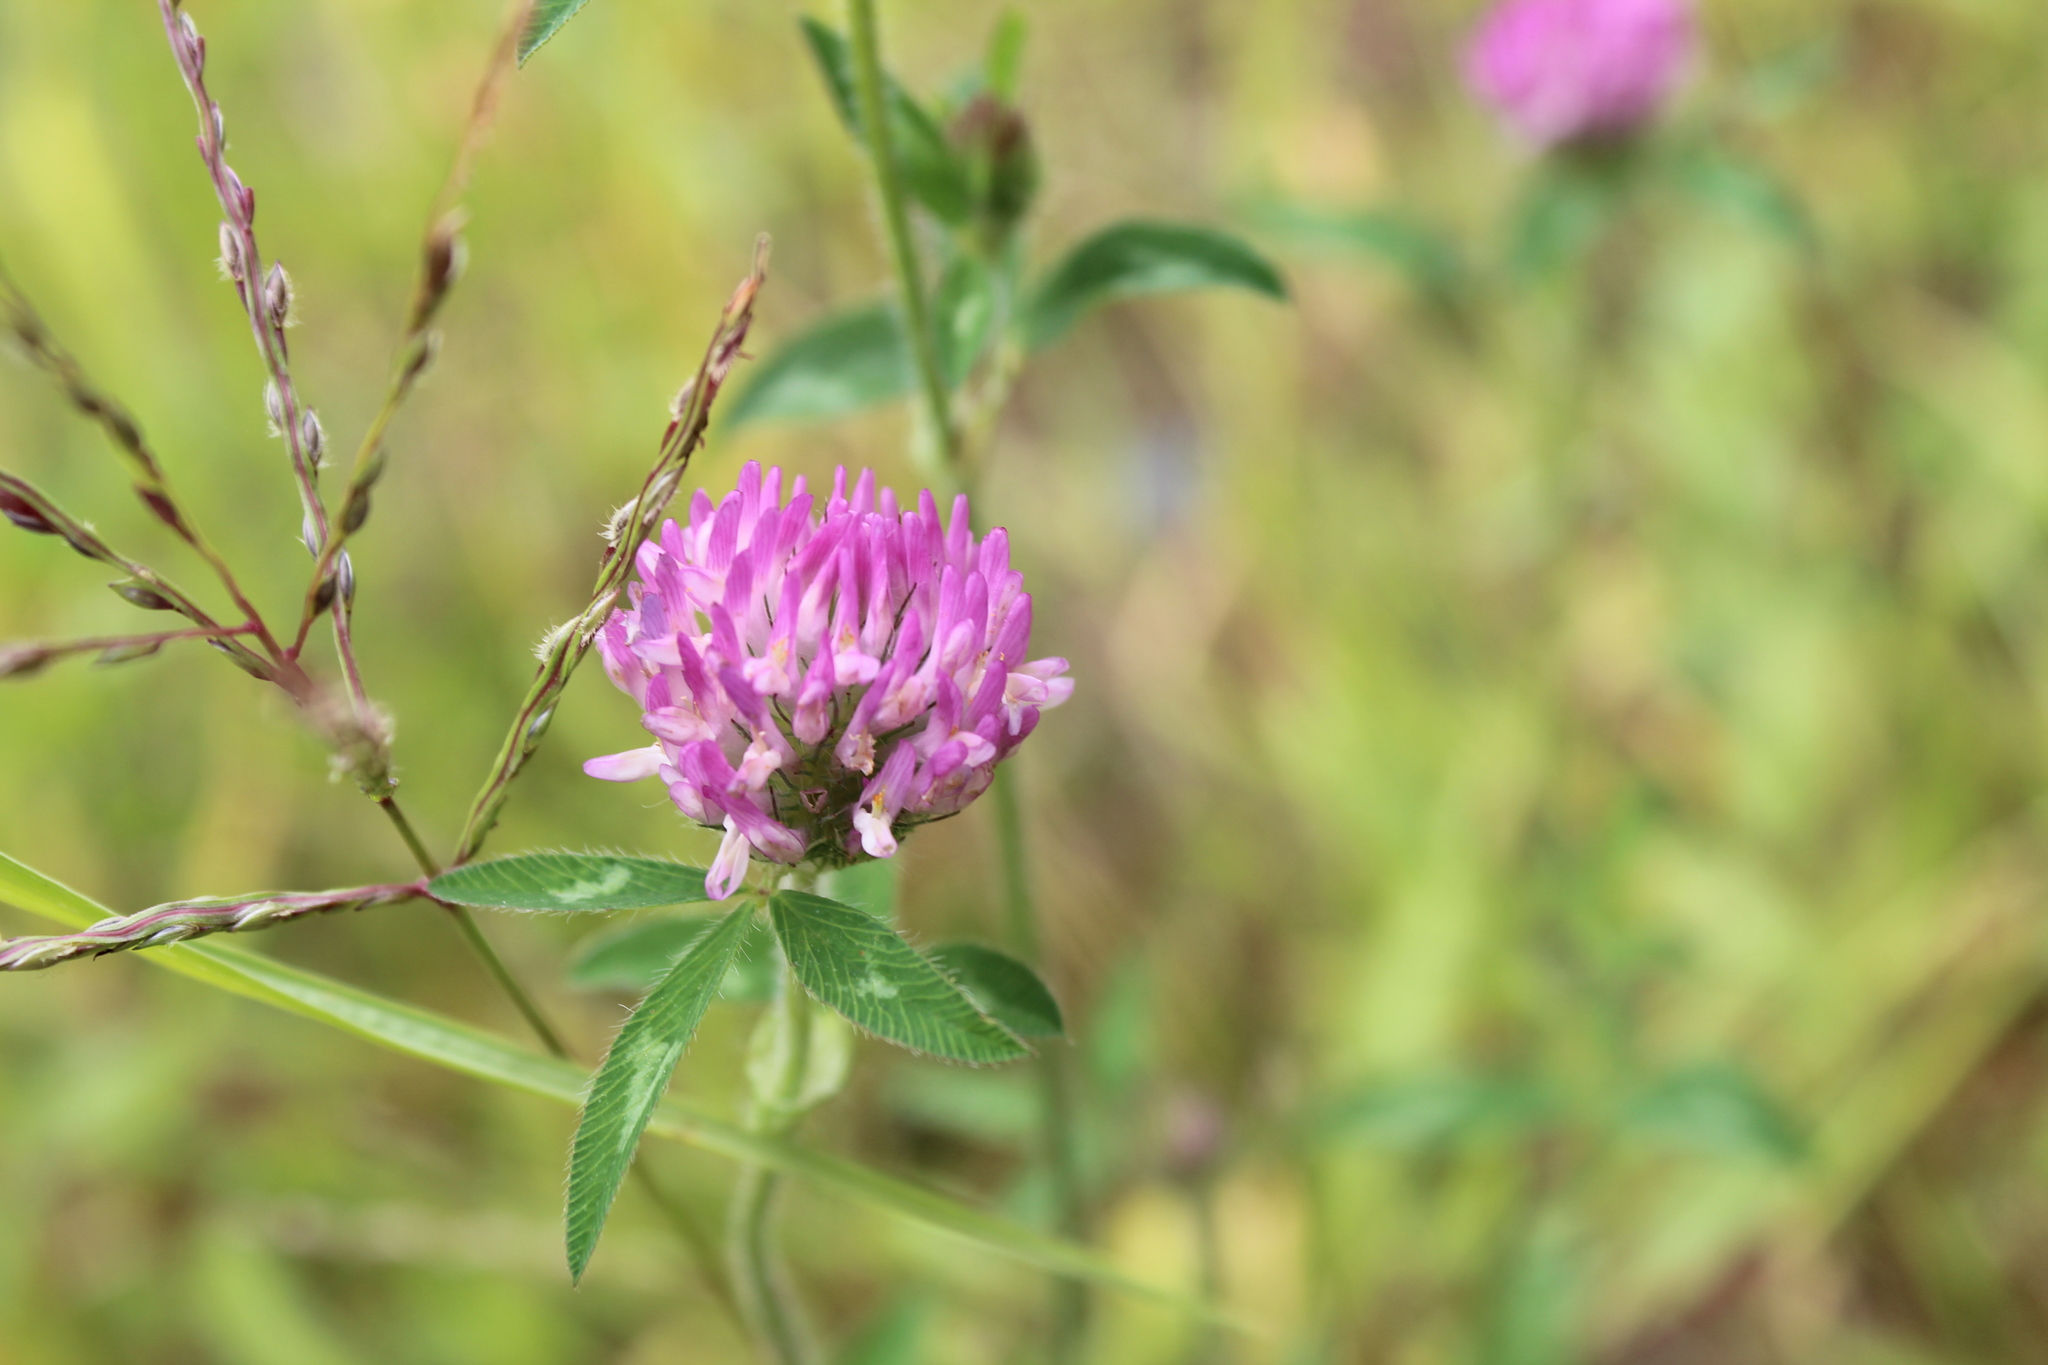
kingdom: Plantae
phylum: Tracheophyta
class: Magnoliopsida
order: Fabales
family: Fabaceae
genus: Trifolium
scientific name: Trifolium pratense
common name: Red clover
